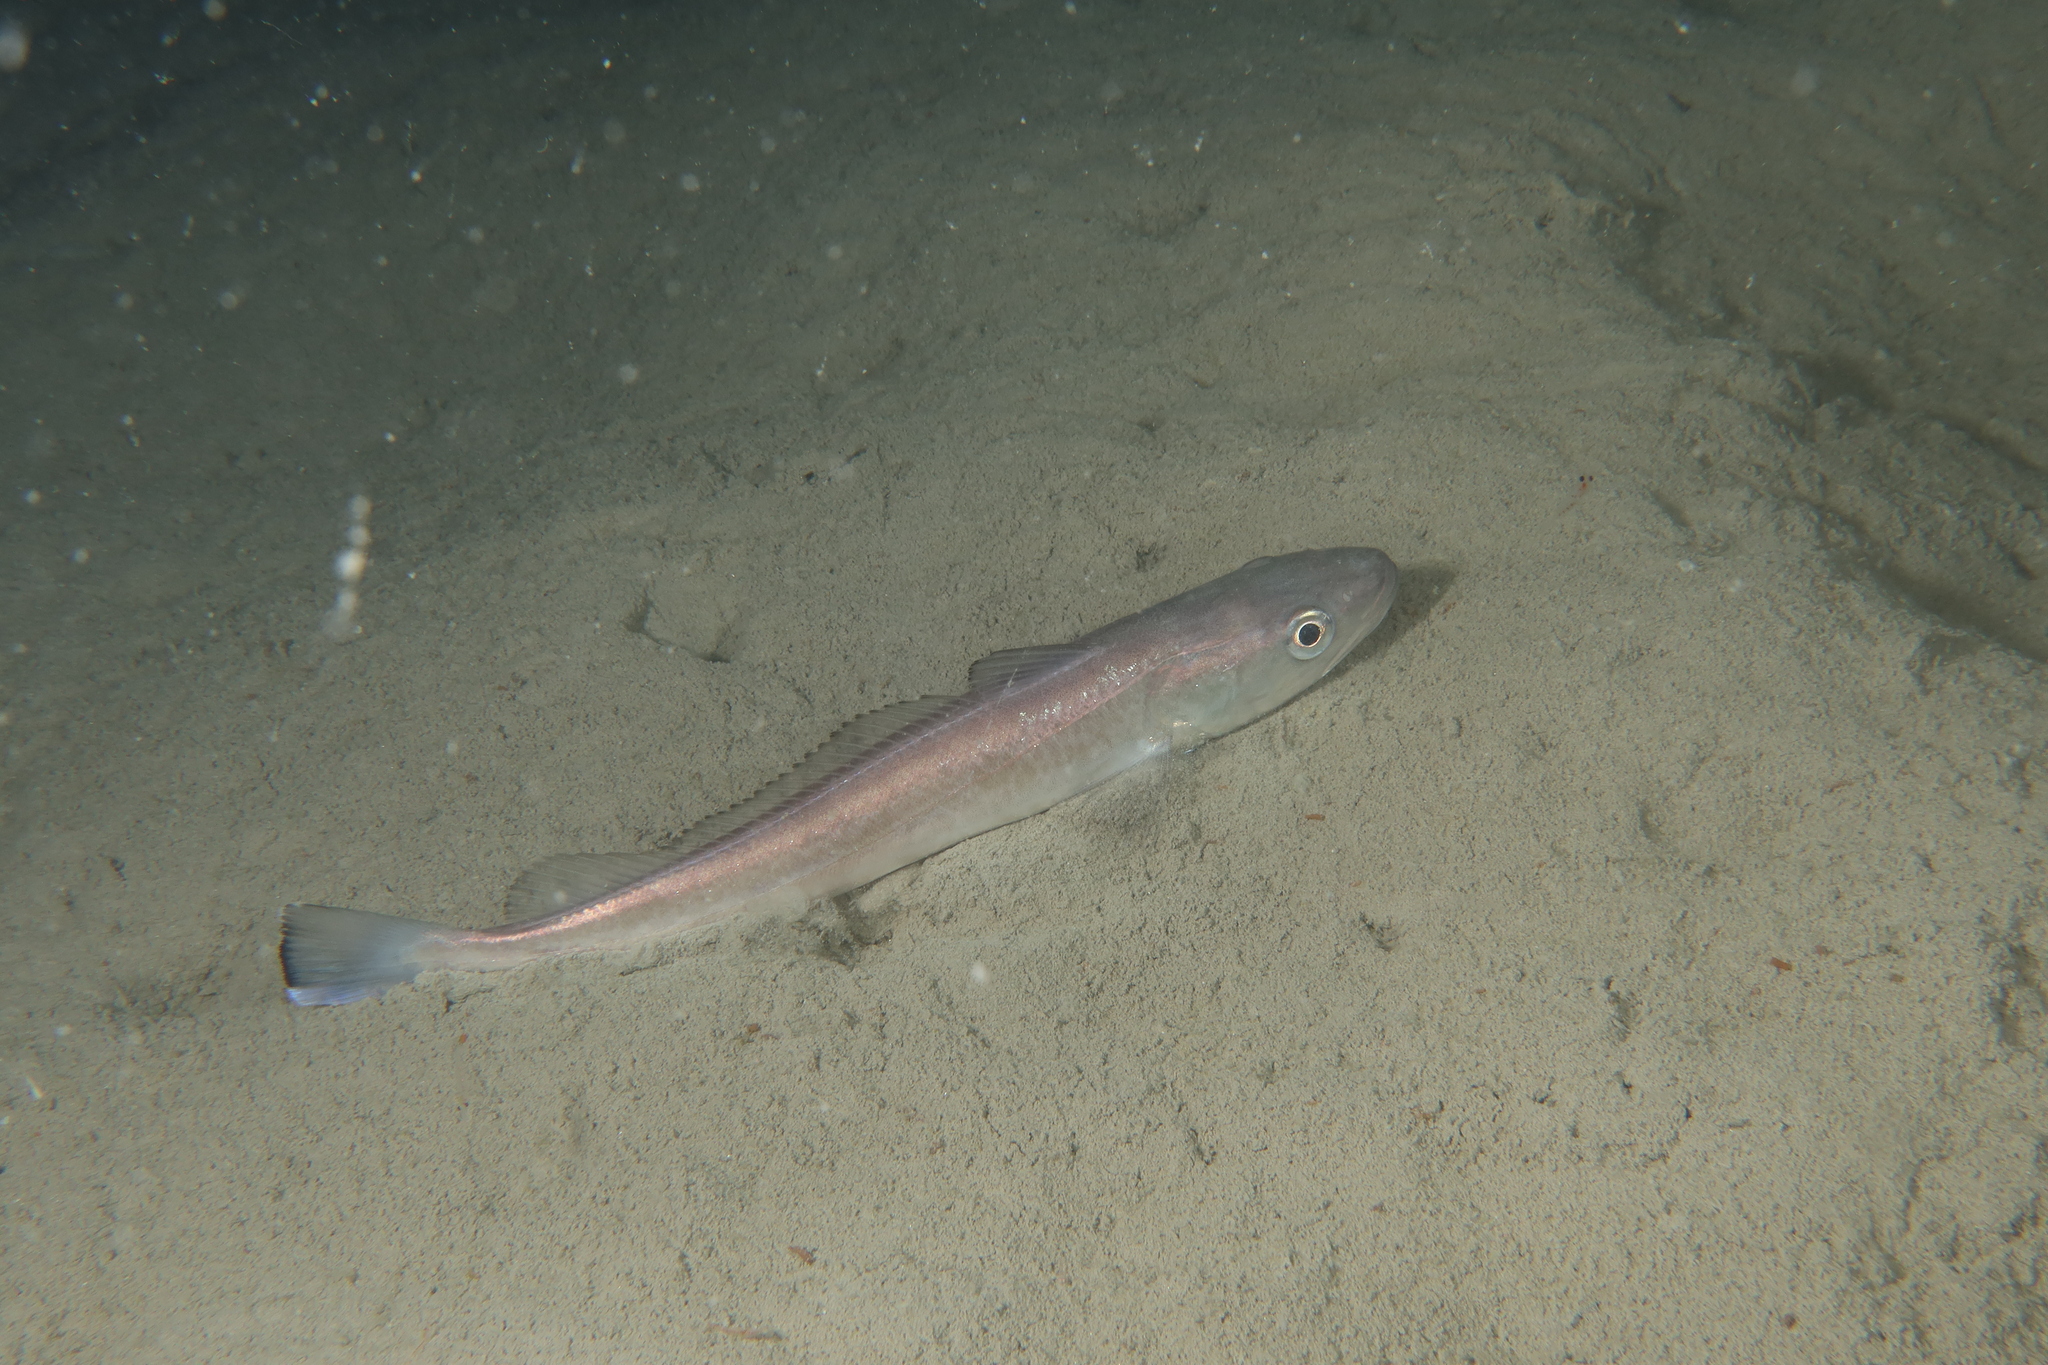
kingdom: Animalia
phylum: Chordata
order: Gadiformes
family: Merlucciidae
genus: Merluccius
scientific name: Merluccius merluccius
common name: European hake
